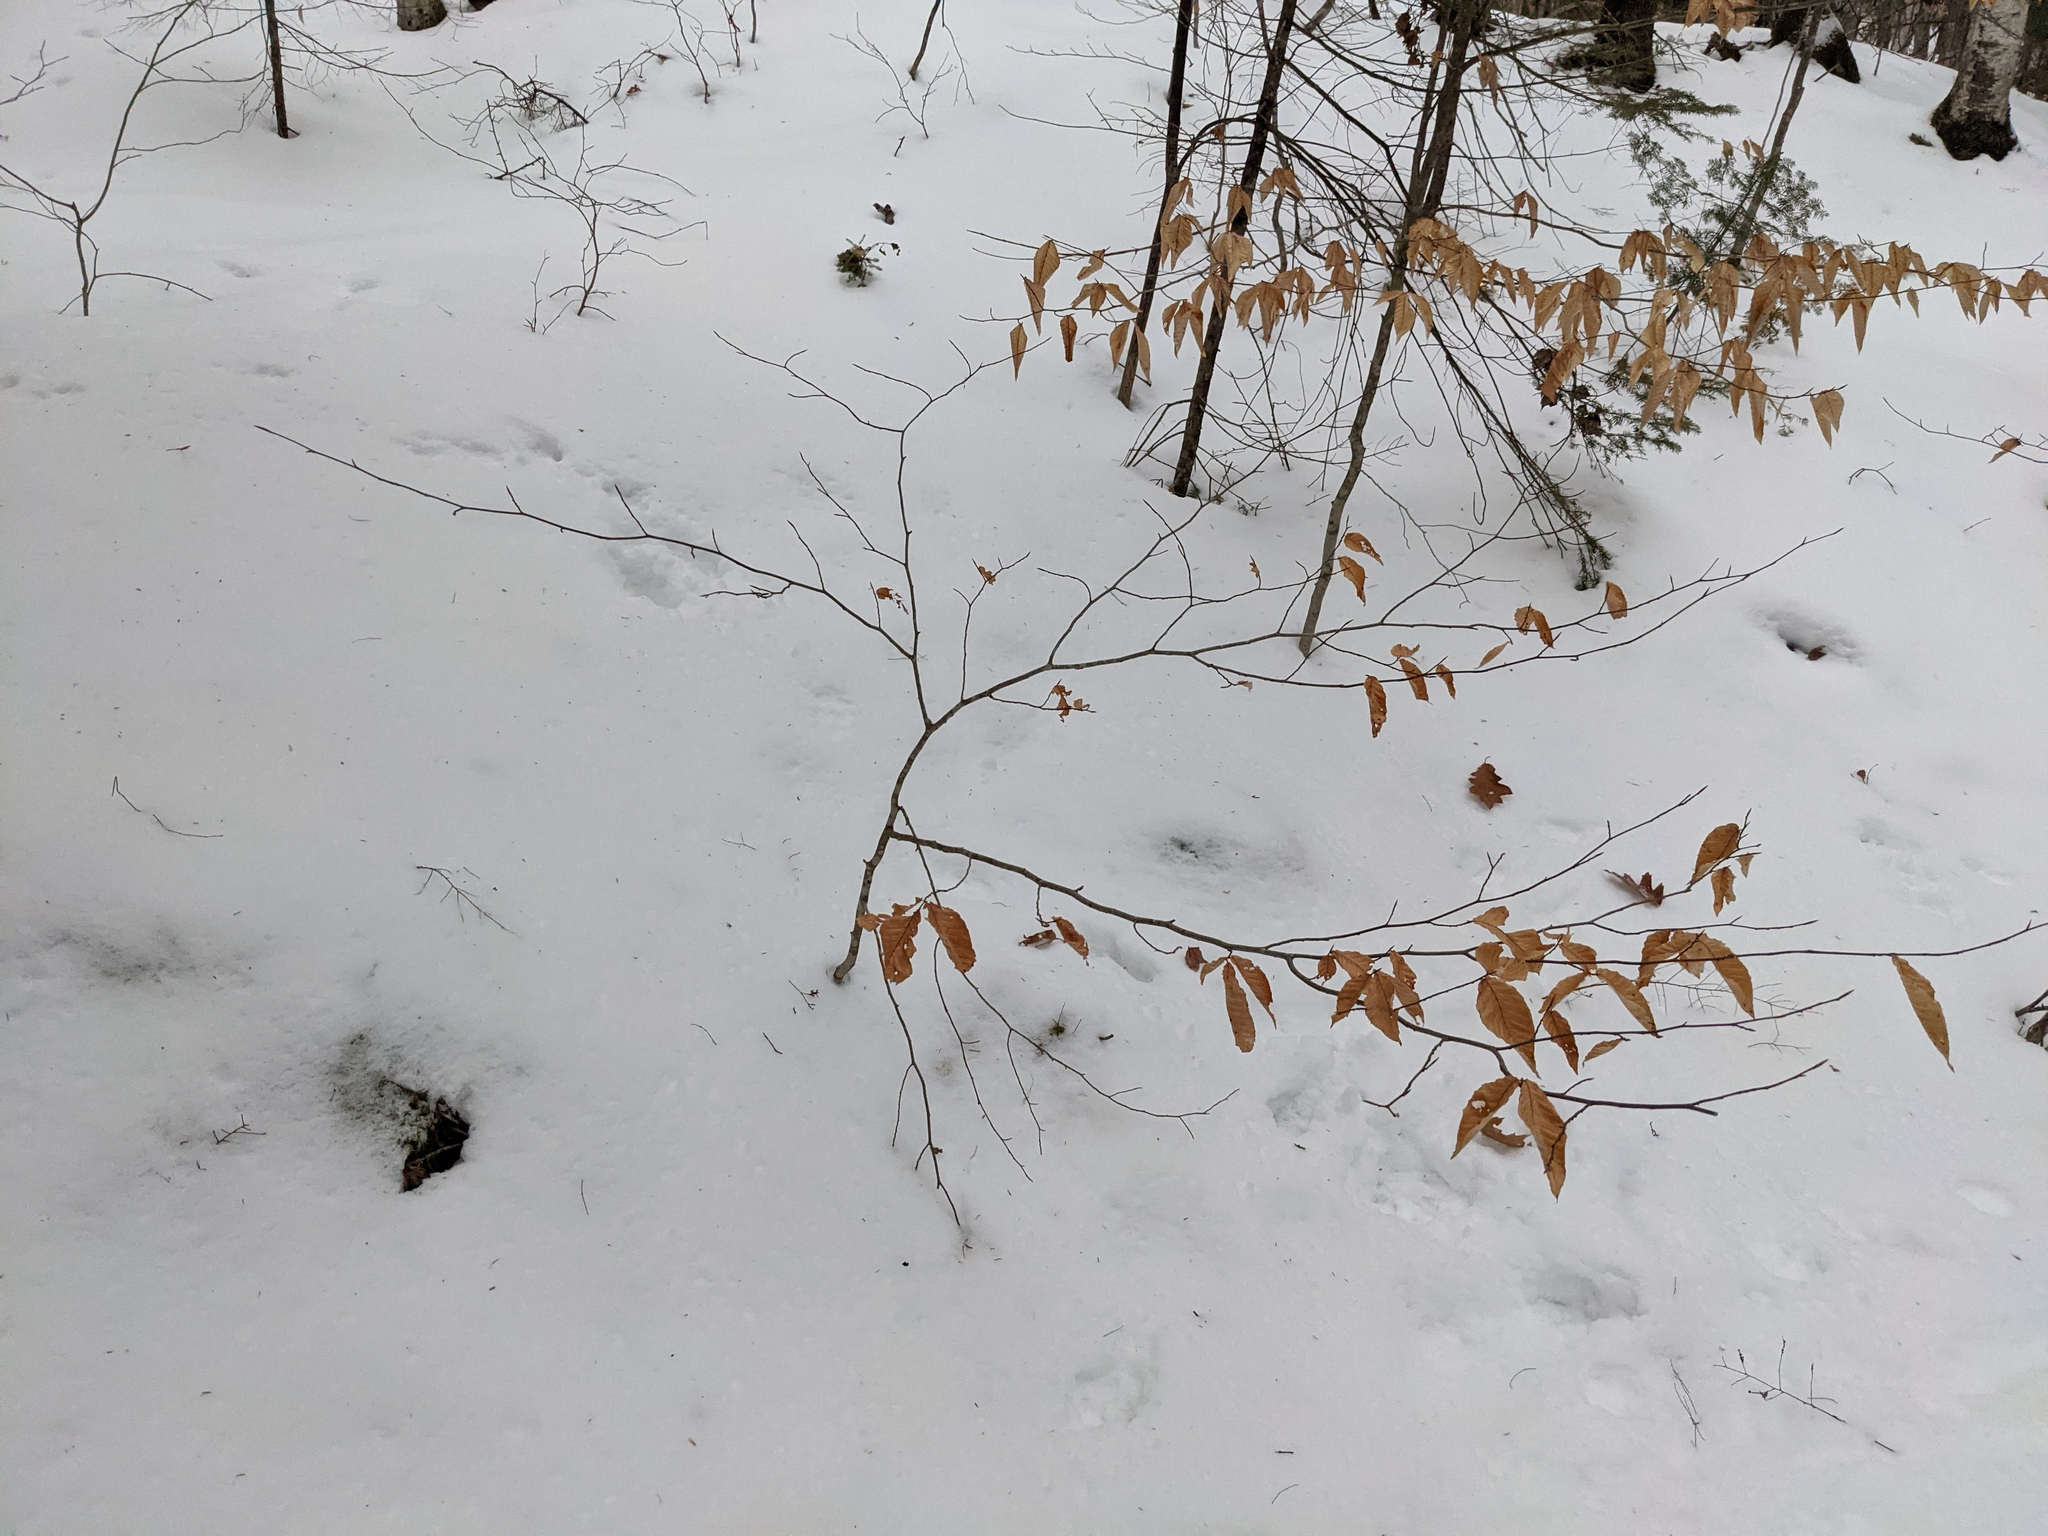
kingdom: Plantae
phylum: Tracheophyta
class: Magnoliopsida
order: Fagales
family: Fagaceae
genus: Fagus
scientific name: Fagus grandifolia
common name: American beech
